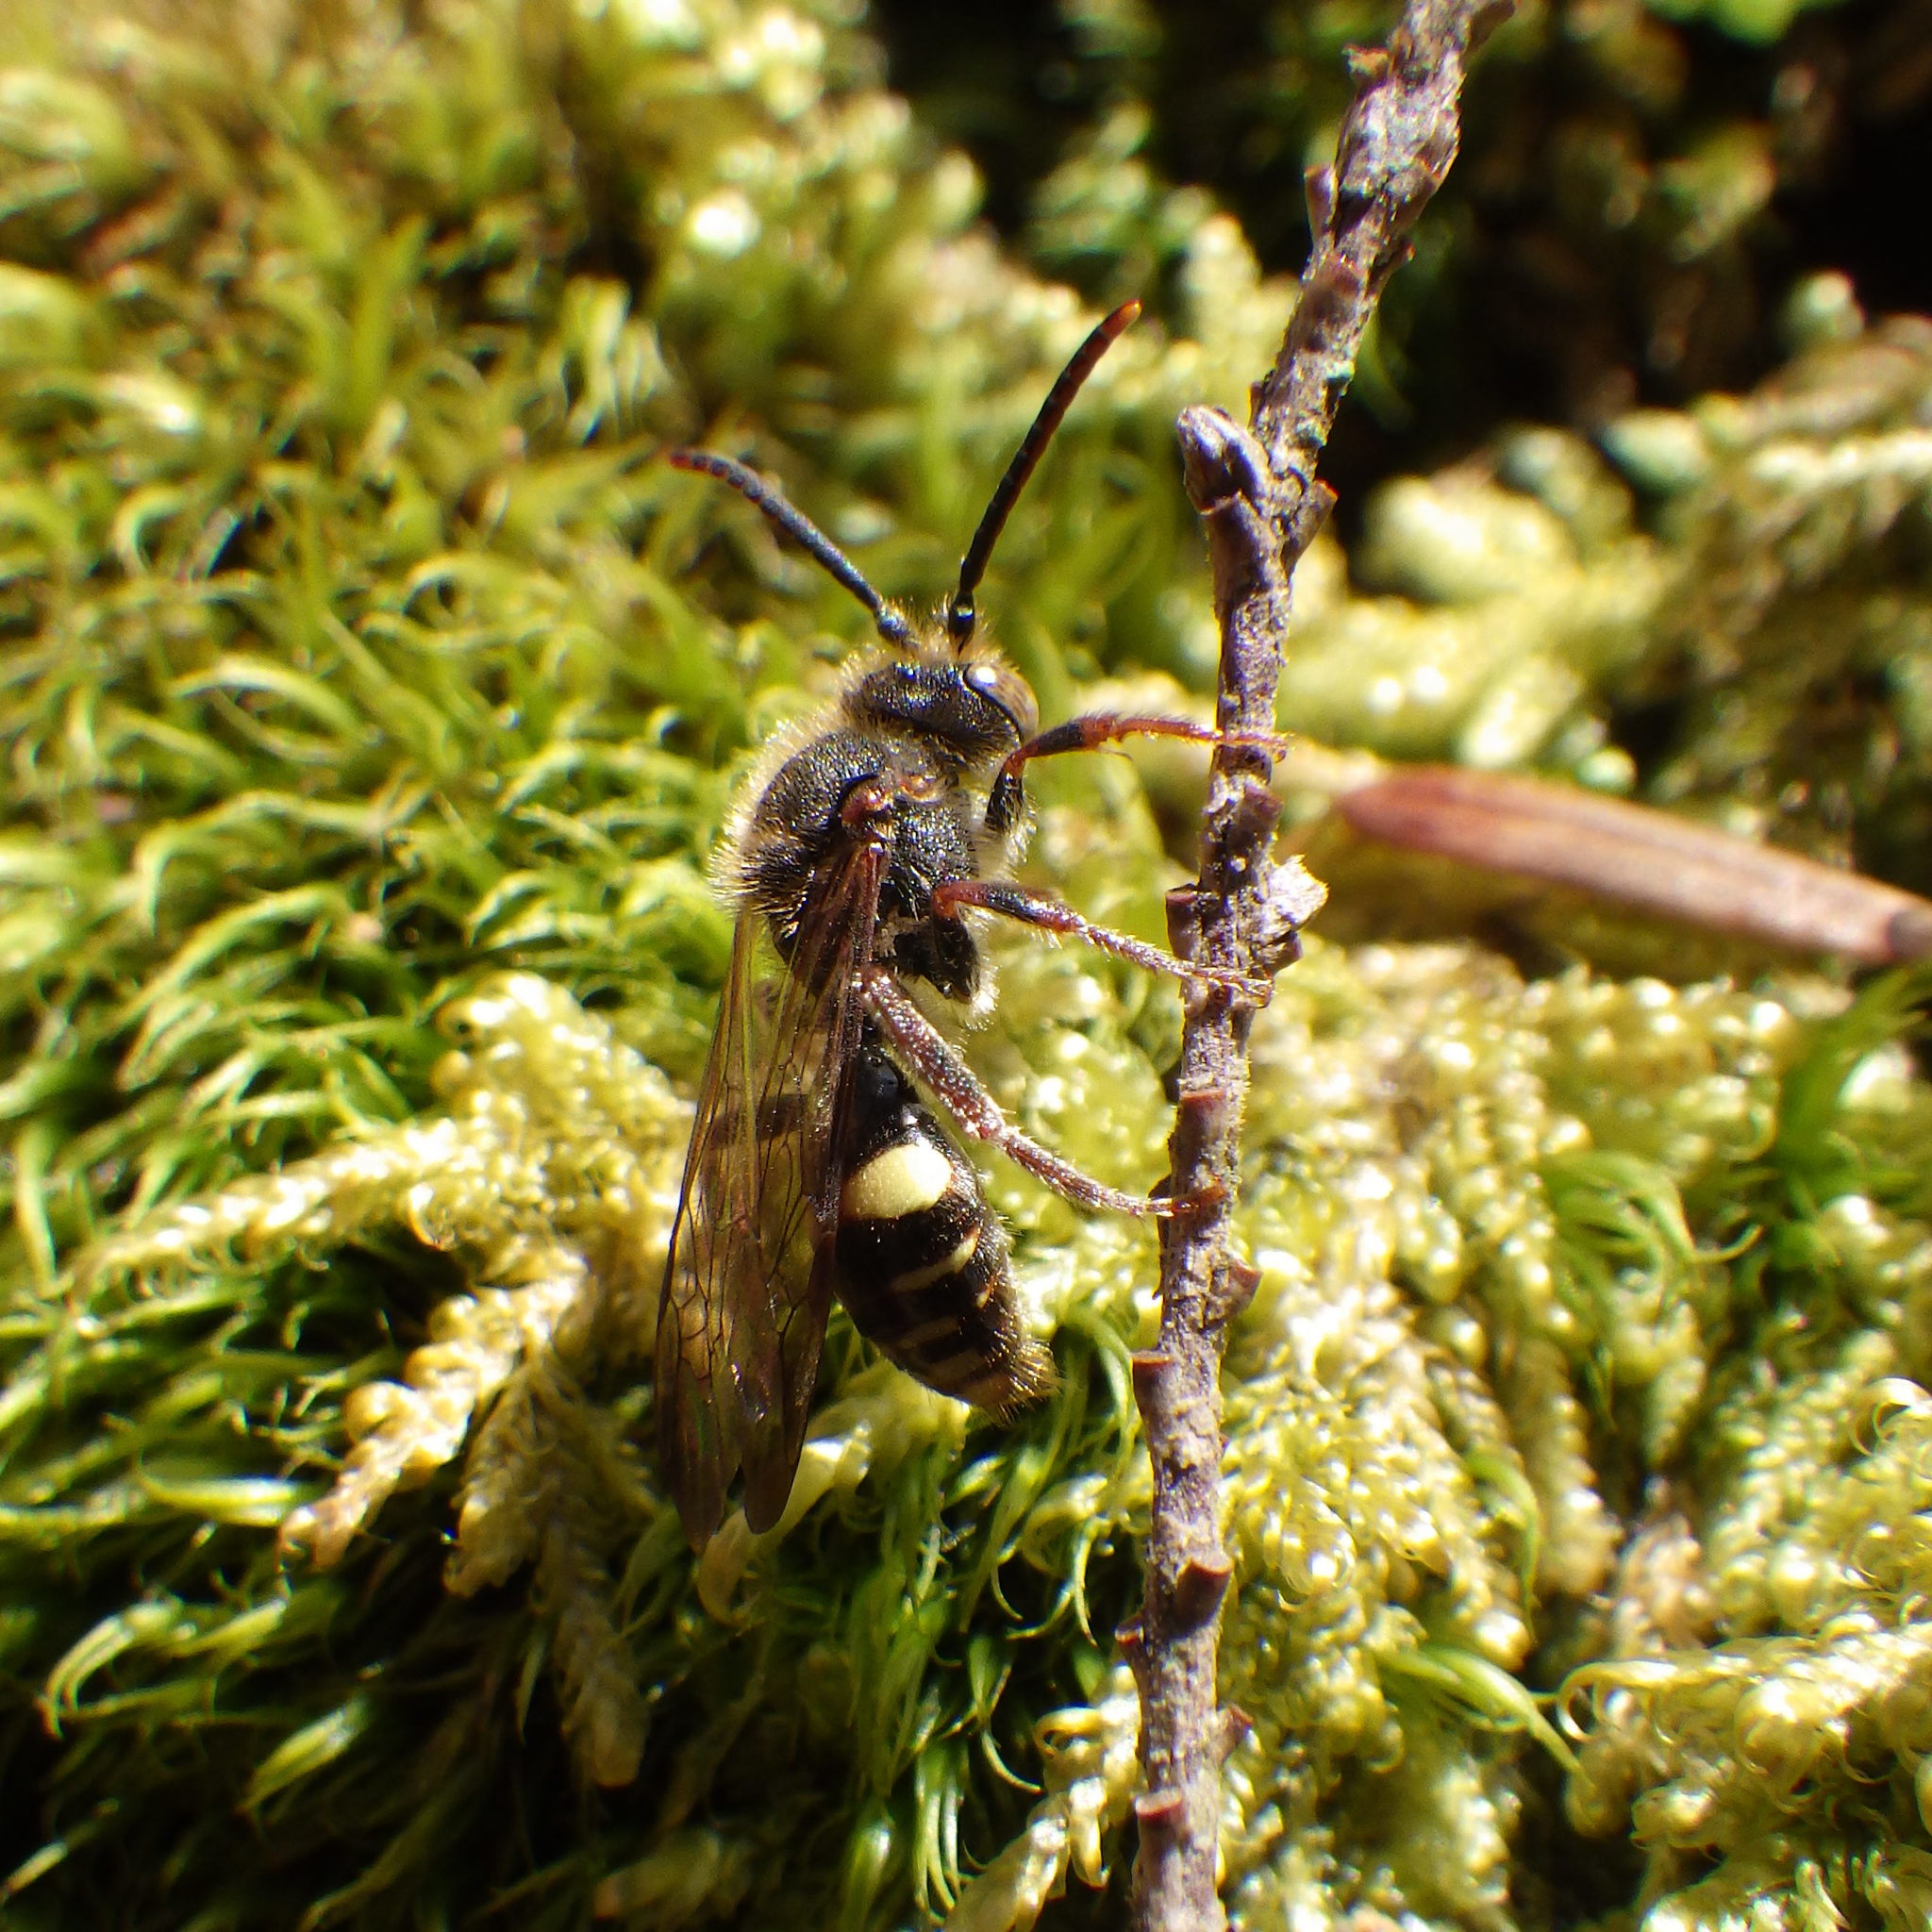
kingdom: Animalia
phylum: Arthropoda
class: Insecta
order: Hymenoptera
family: Apidae
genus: Nomada
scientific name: Nomada gracilis
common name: Slender cuckoo nomad bee
